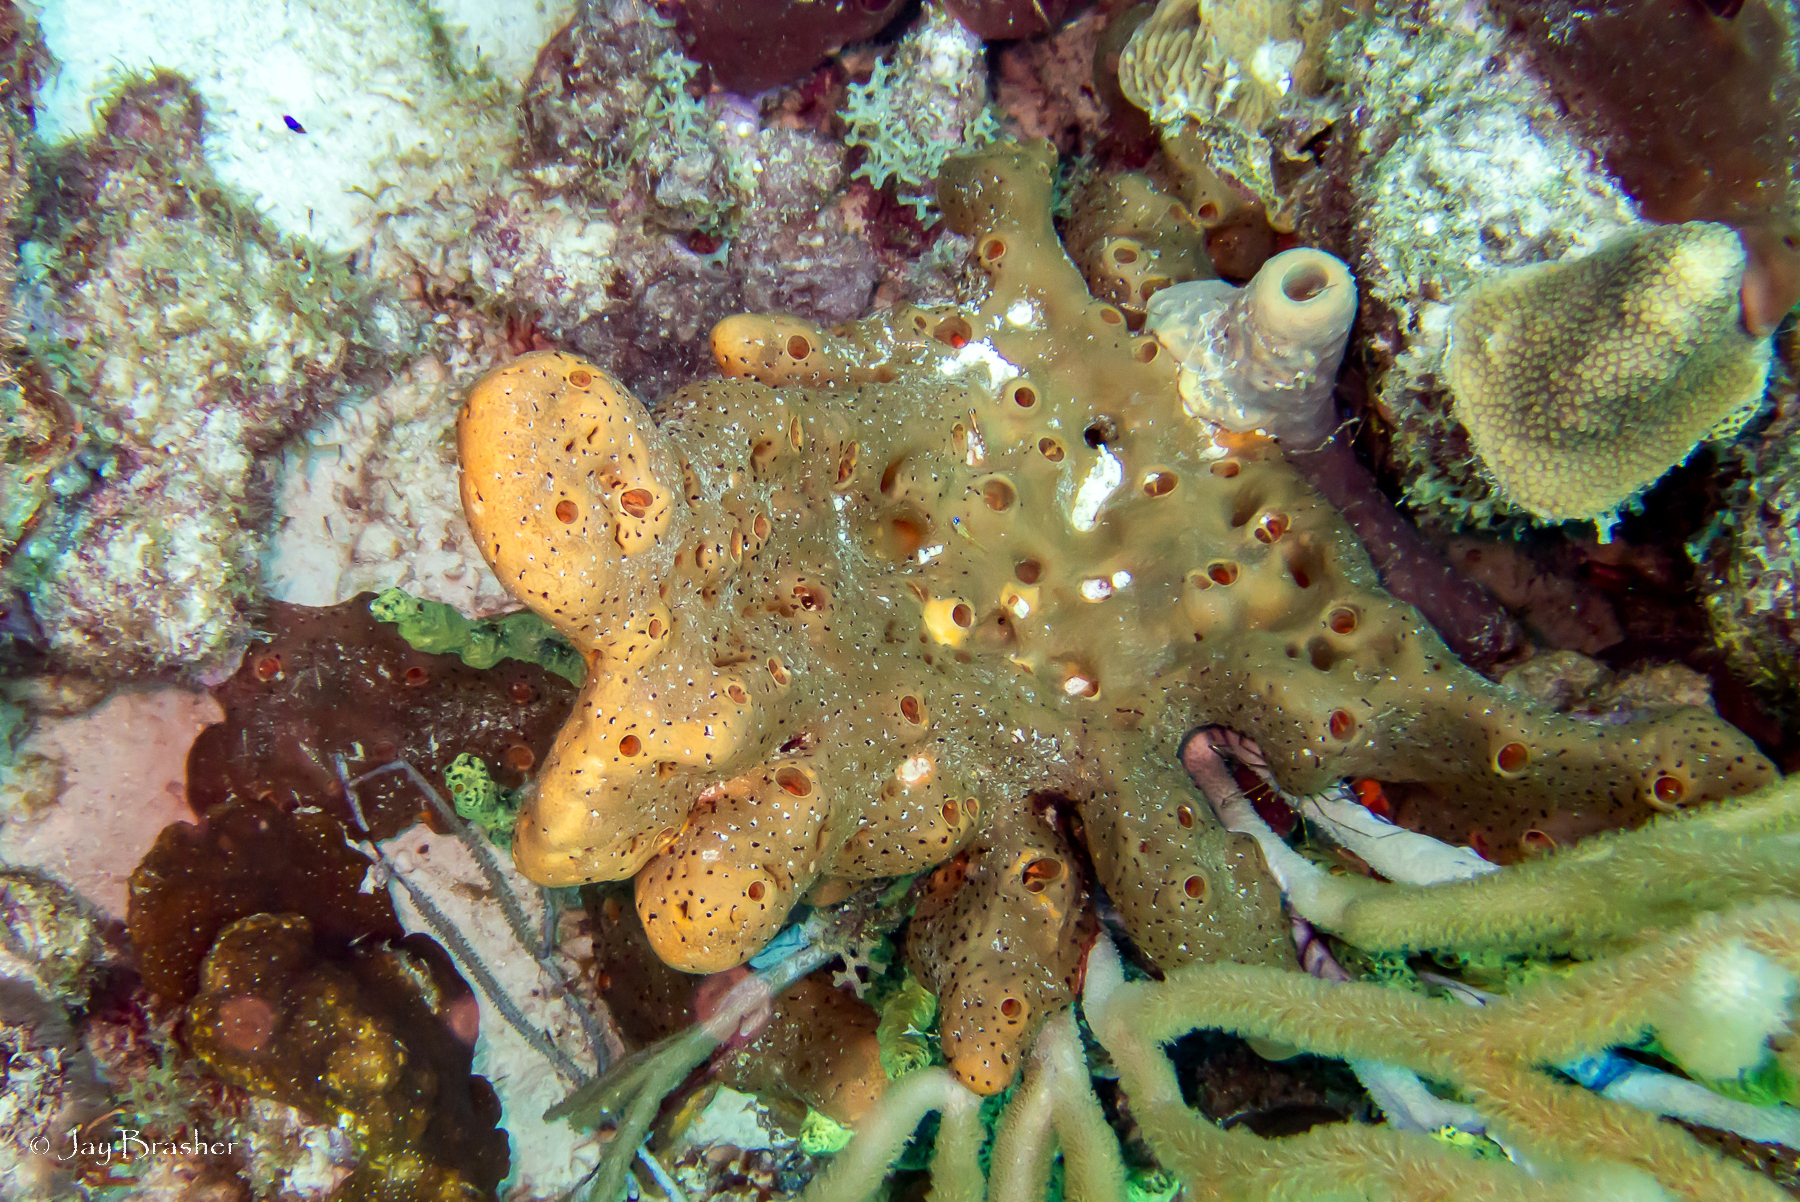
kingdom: Animalia
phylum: Porifera
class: Demospongiae
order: Agelasida
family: Agelasidae
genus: Agelas
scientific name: Agelas conifera
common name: Brown tube sponge
